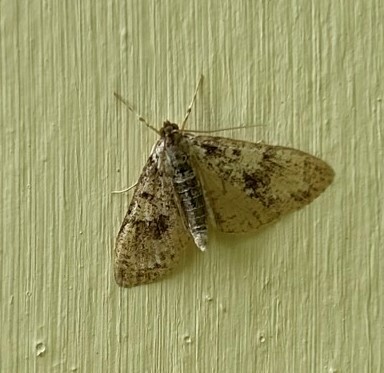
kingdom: Animalia
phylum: Arthropoda
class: Insecta
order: Lepidoptera
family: Crambidae
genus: Palpita
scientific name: Palpita magniferalis
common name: Splendid palpita moth
